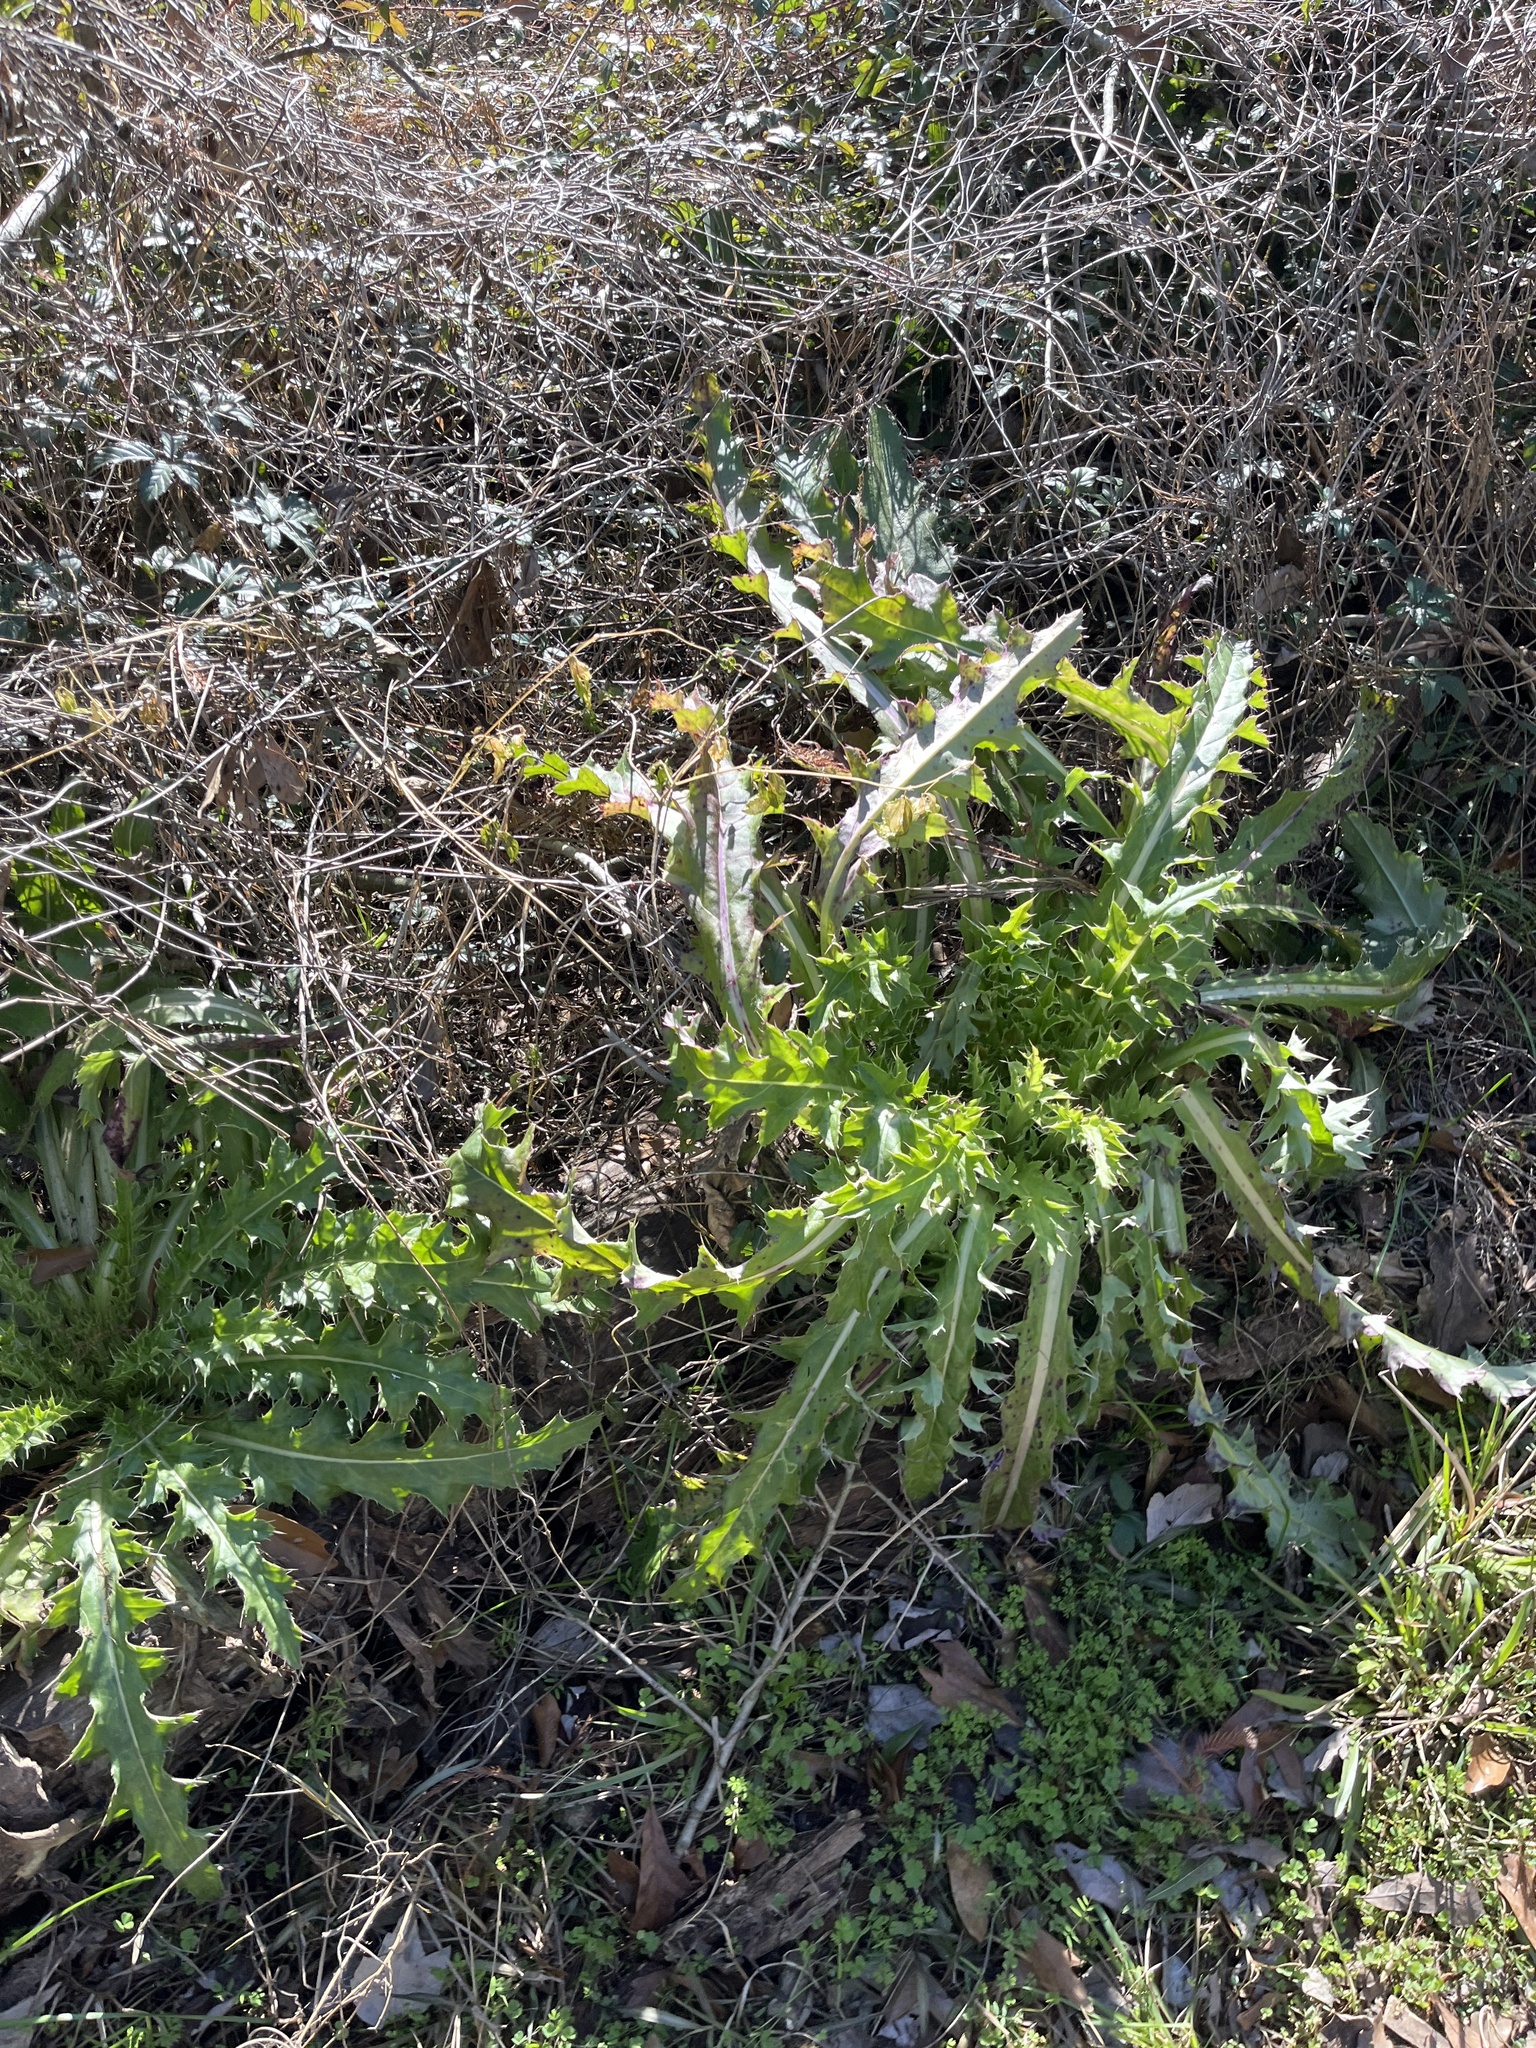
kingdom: Plantae
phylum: Tracheophyta
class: Magnoliopsida
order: Asterales
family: Asteraceae
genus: Cirsium
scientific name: Cirsium horridulum
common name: Bristly thistle
